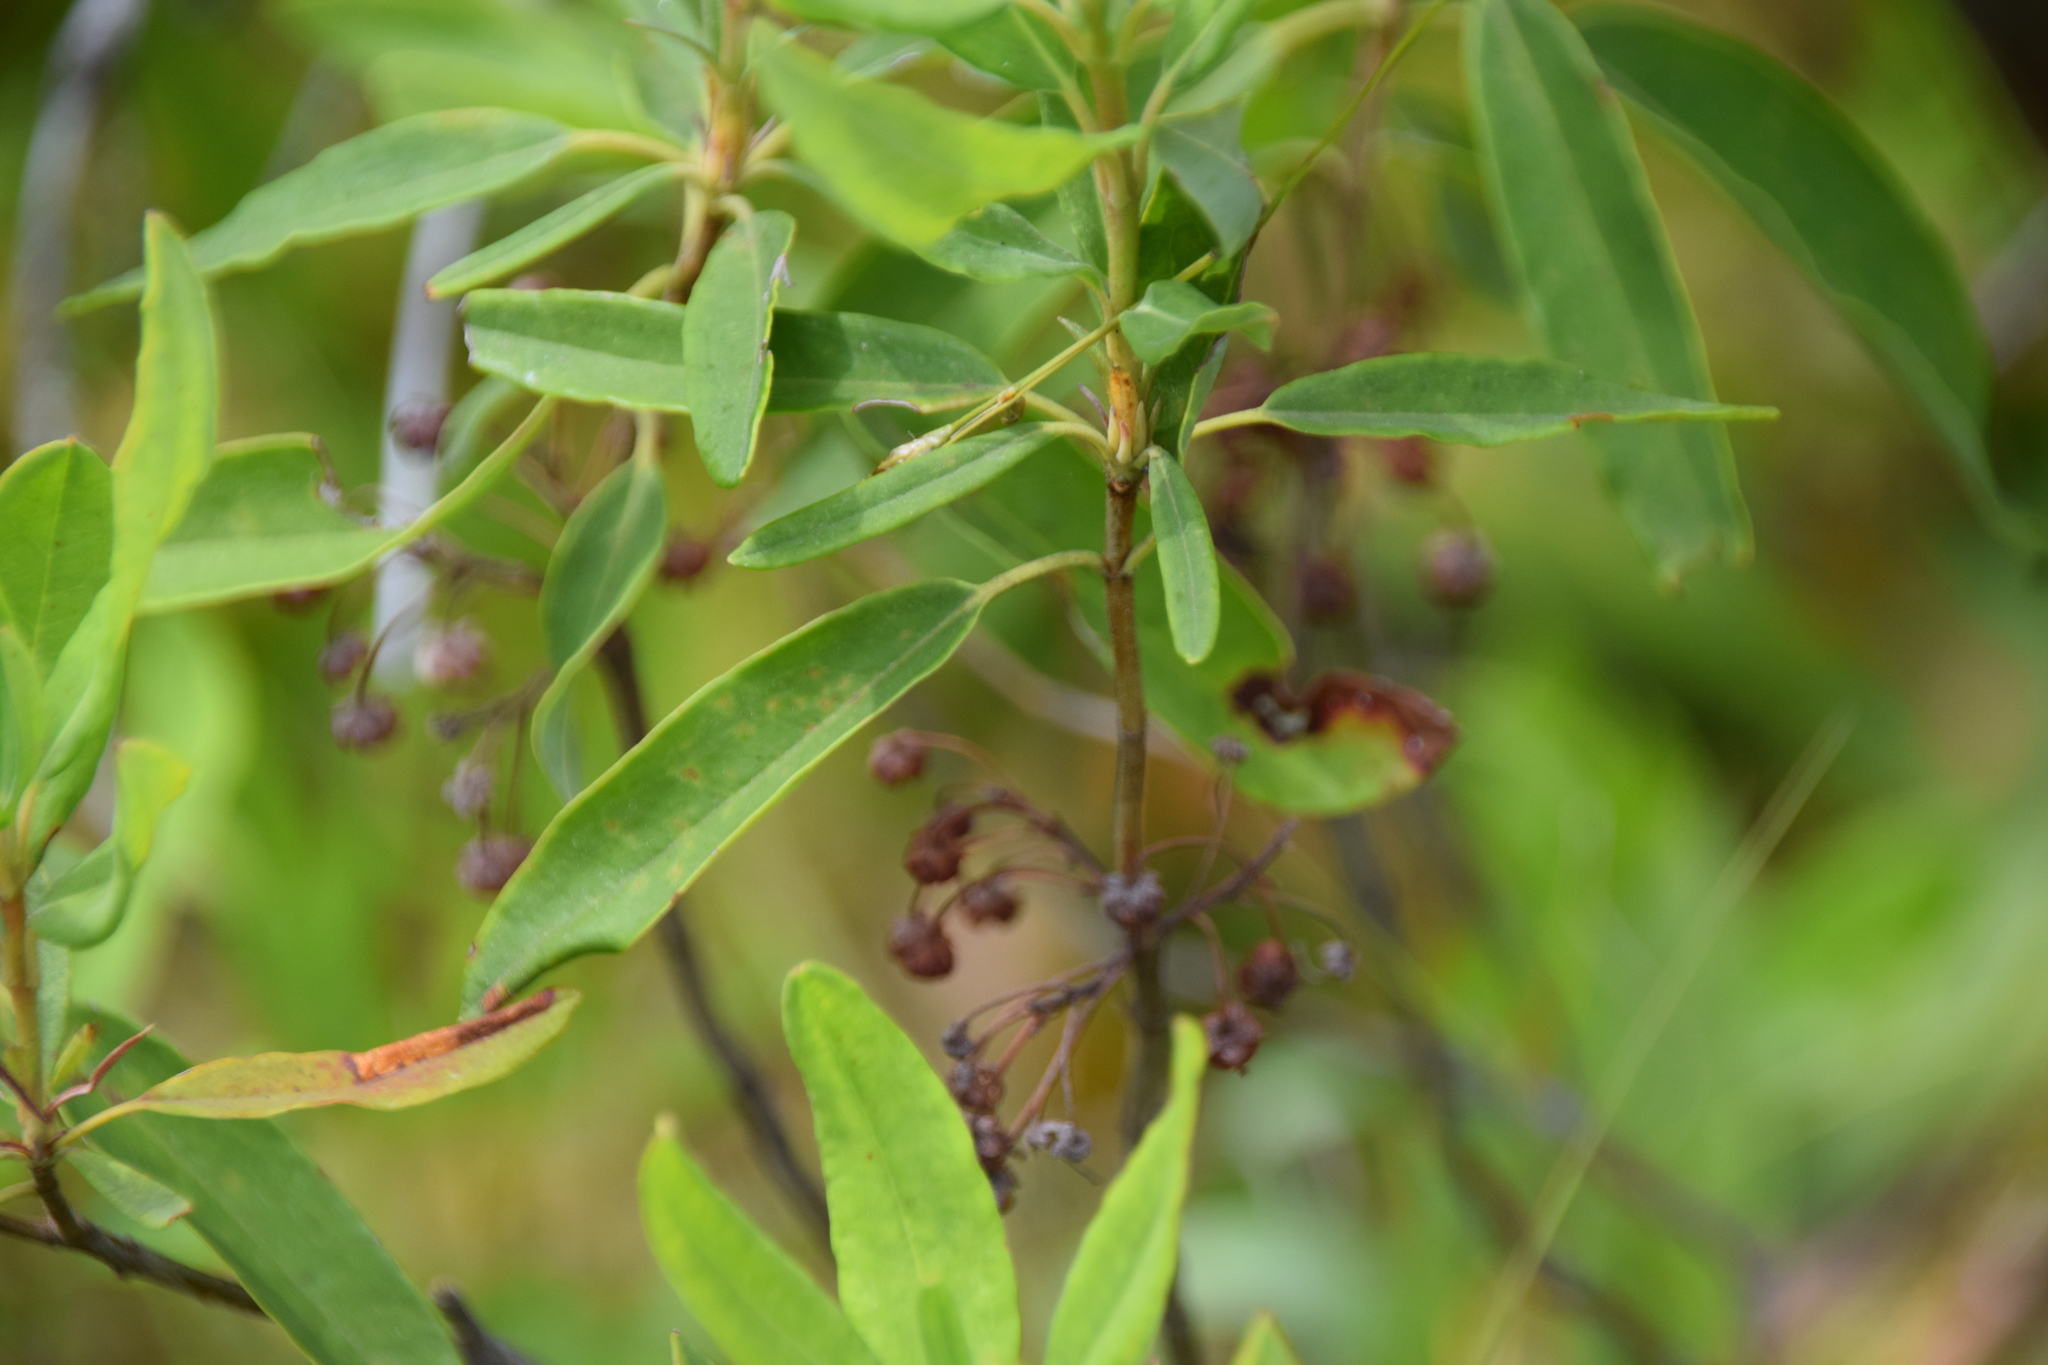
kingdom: Plantae
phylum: Tracheophyta
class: Magnoliopsida
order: Ericales
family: Ericaceae
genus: Kalmia
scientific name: Kalmia angustifolia
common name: Sheep-laurel
